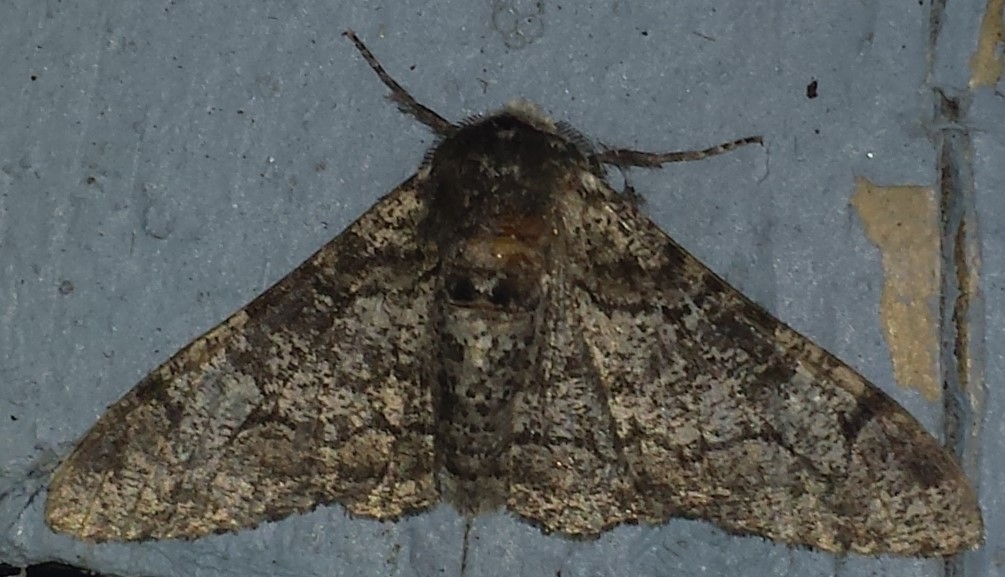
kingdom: Animalia
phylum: Arthropoda
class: Insecta
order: Lepidoptera
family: Geometridae
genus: Biston
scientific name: Biston betularia
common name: Peppered moth
